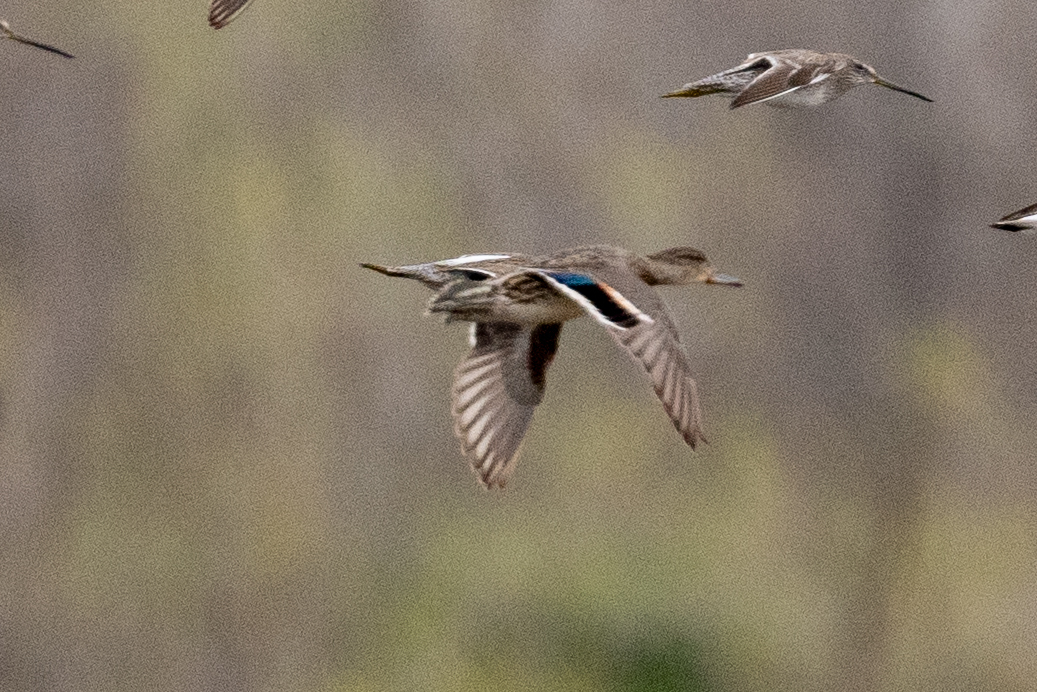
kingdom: Animalia
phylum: Chordata
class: Aves
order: Anseriformes
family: Anatidae
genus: Anas
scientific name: Anas crecca
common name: Eurasian teal
